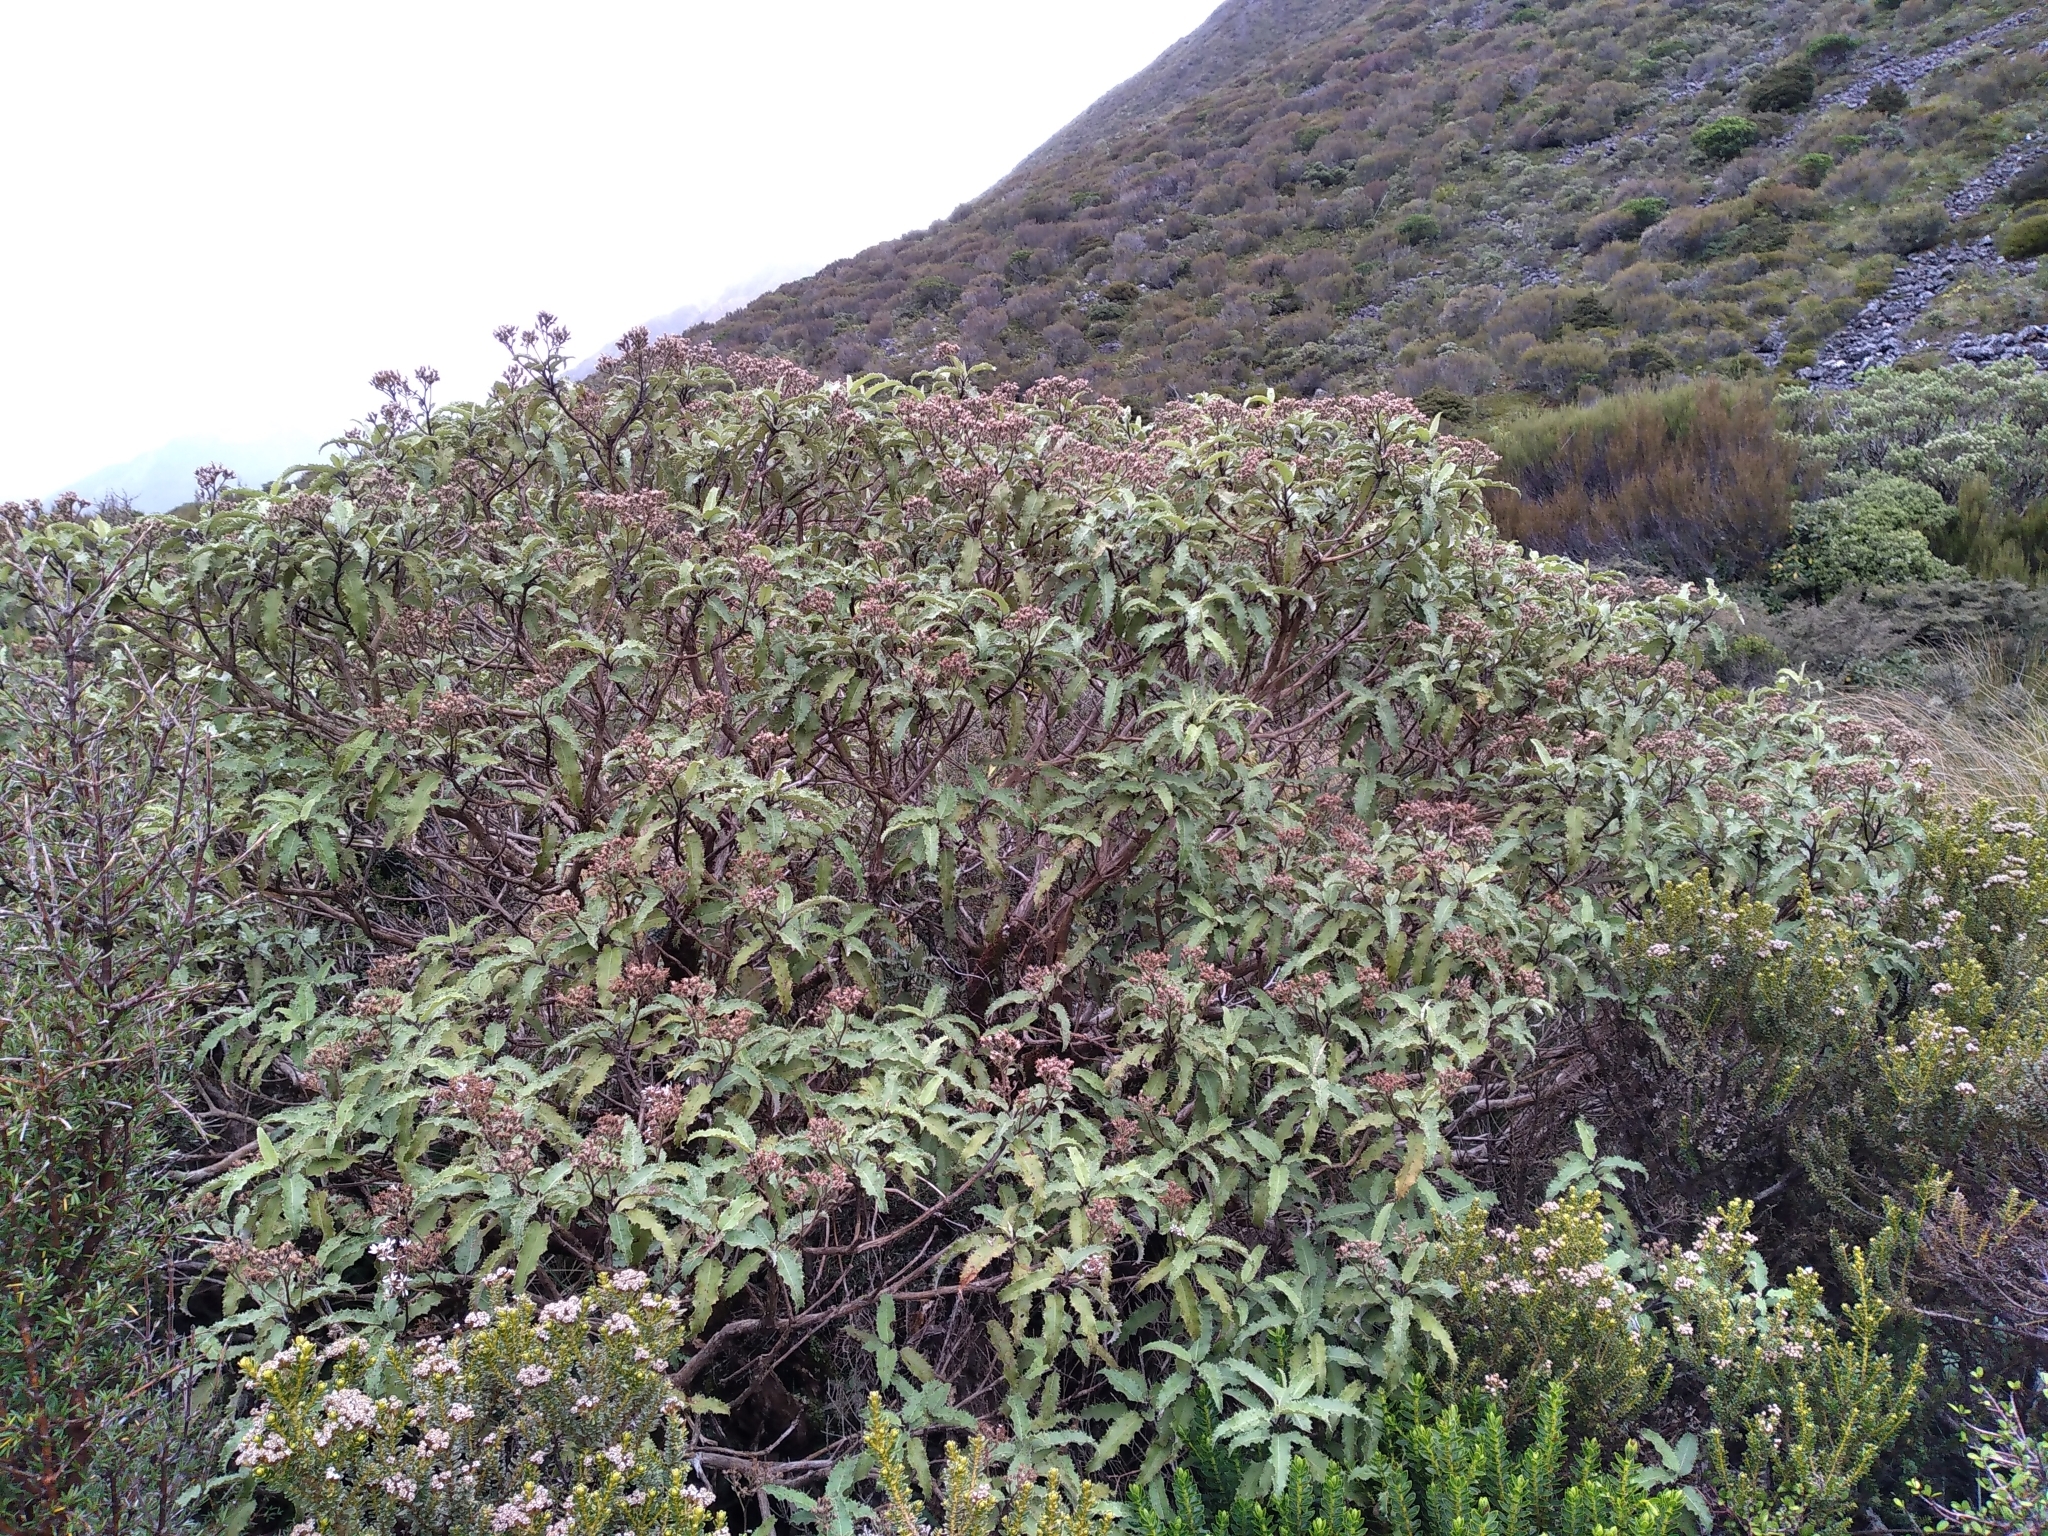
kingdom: Plantae
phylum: Tracheophyta
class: Magnoliopsida
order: Asterales
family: Asteraceae
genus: Olearia
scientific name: Olearia ilicifolia
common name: Maori-holly
